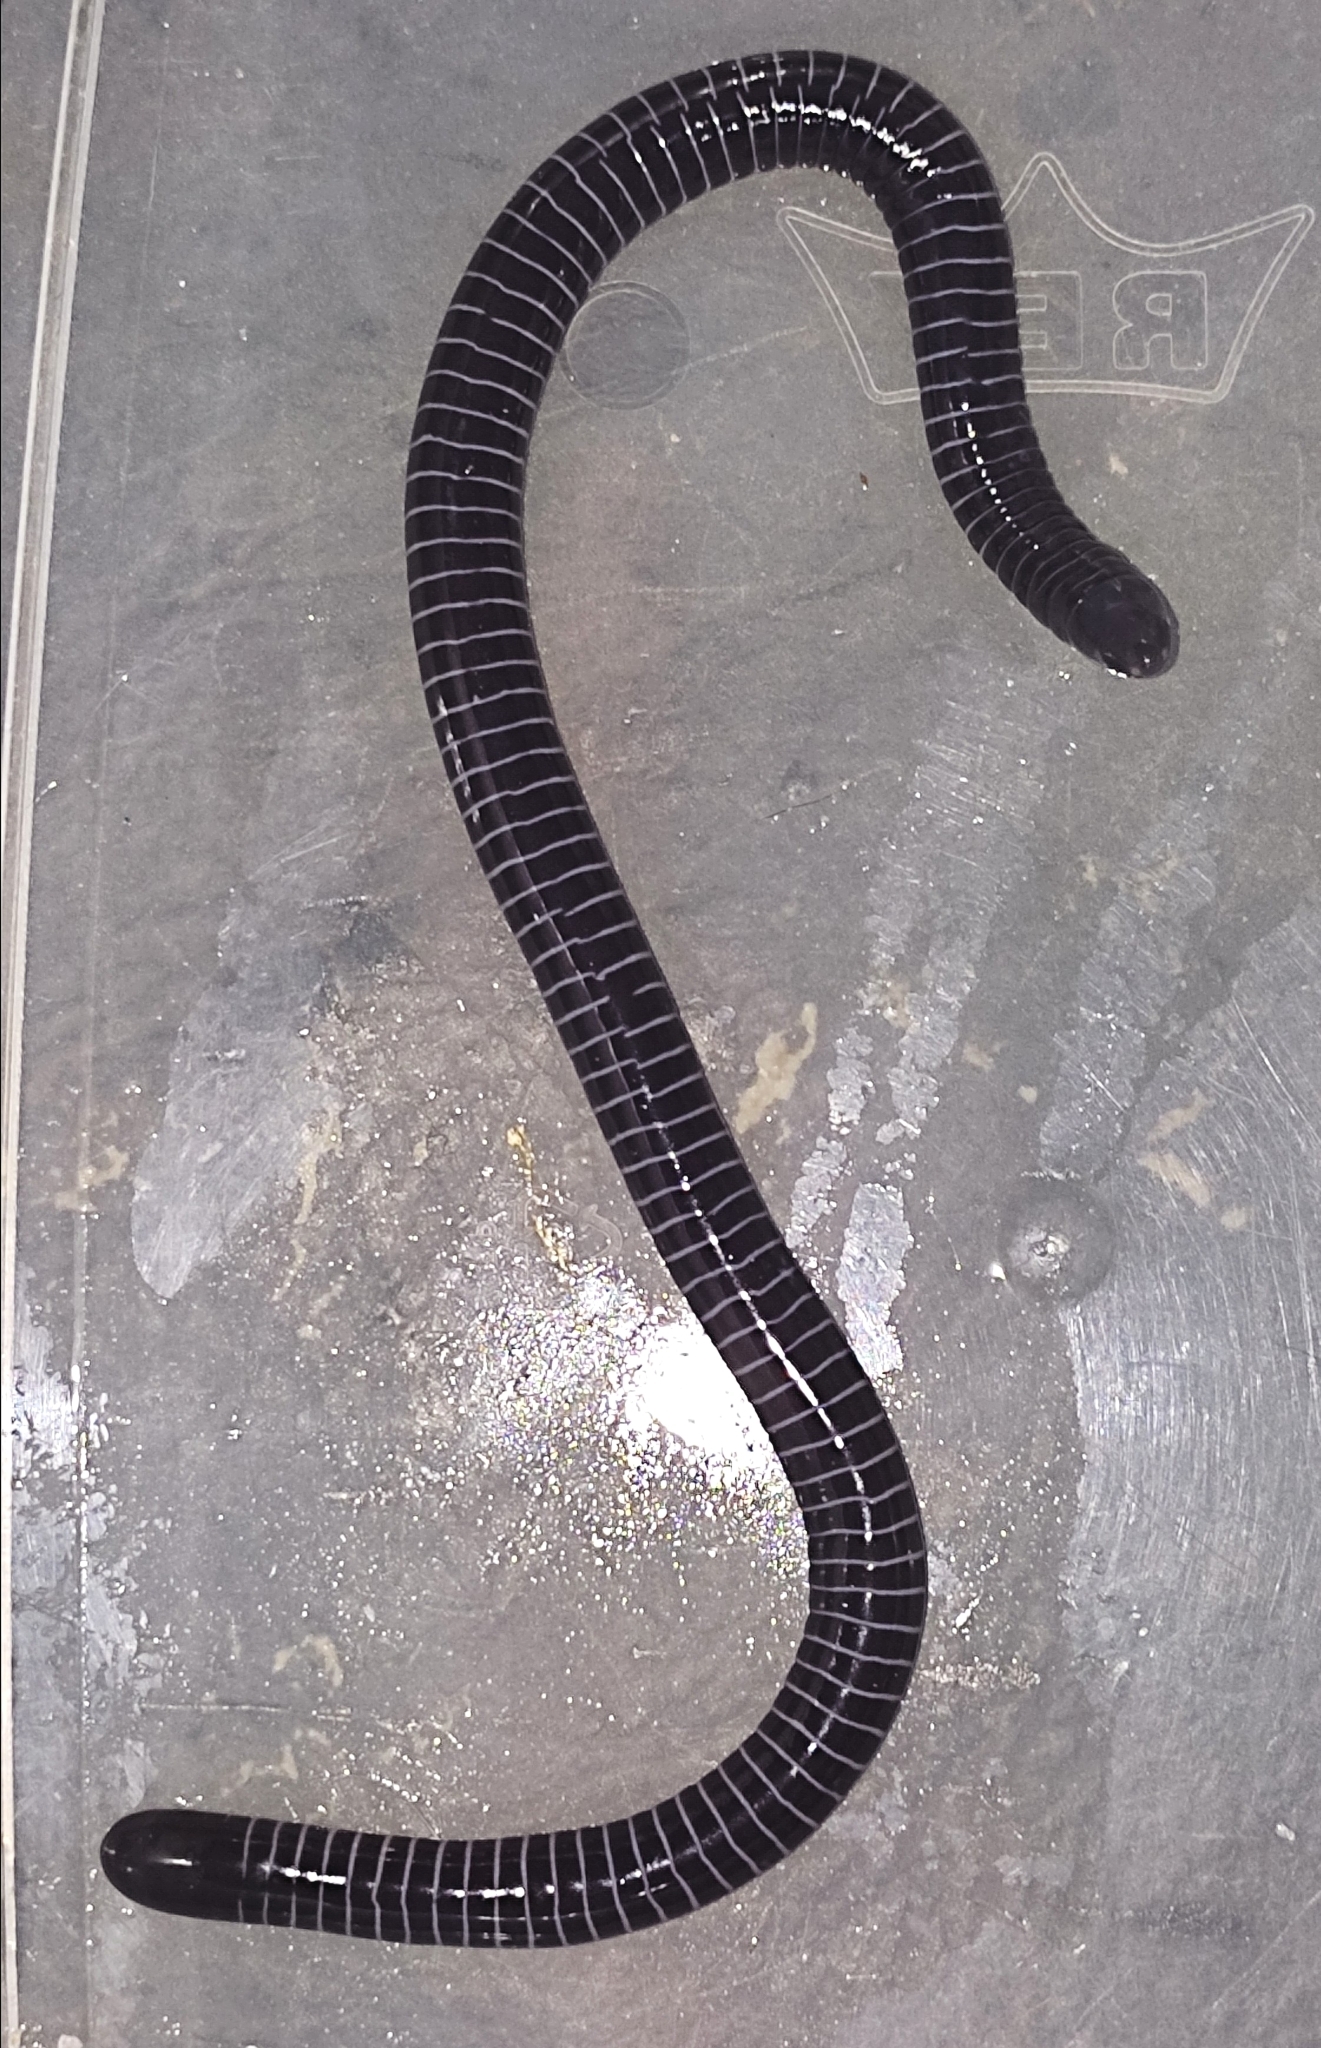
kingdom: Animalia
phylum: Chordata
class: Amphibia
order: Gymnophiona
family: Siphonopidae
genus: Siphonops
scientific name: Siphonops paulensis
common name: Boettger's caecilian
